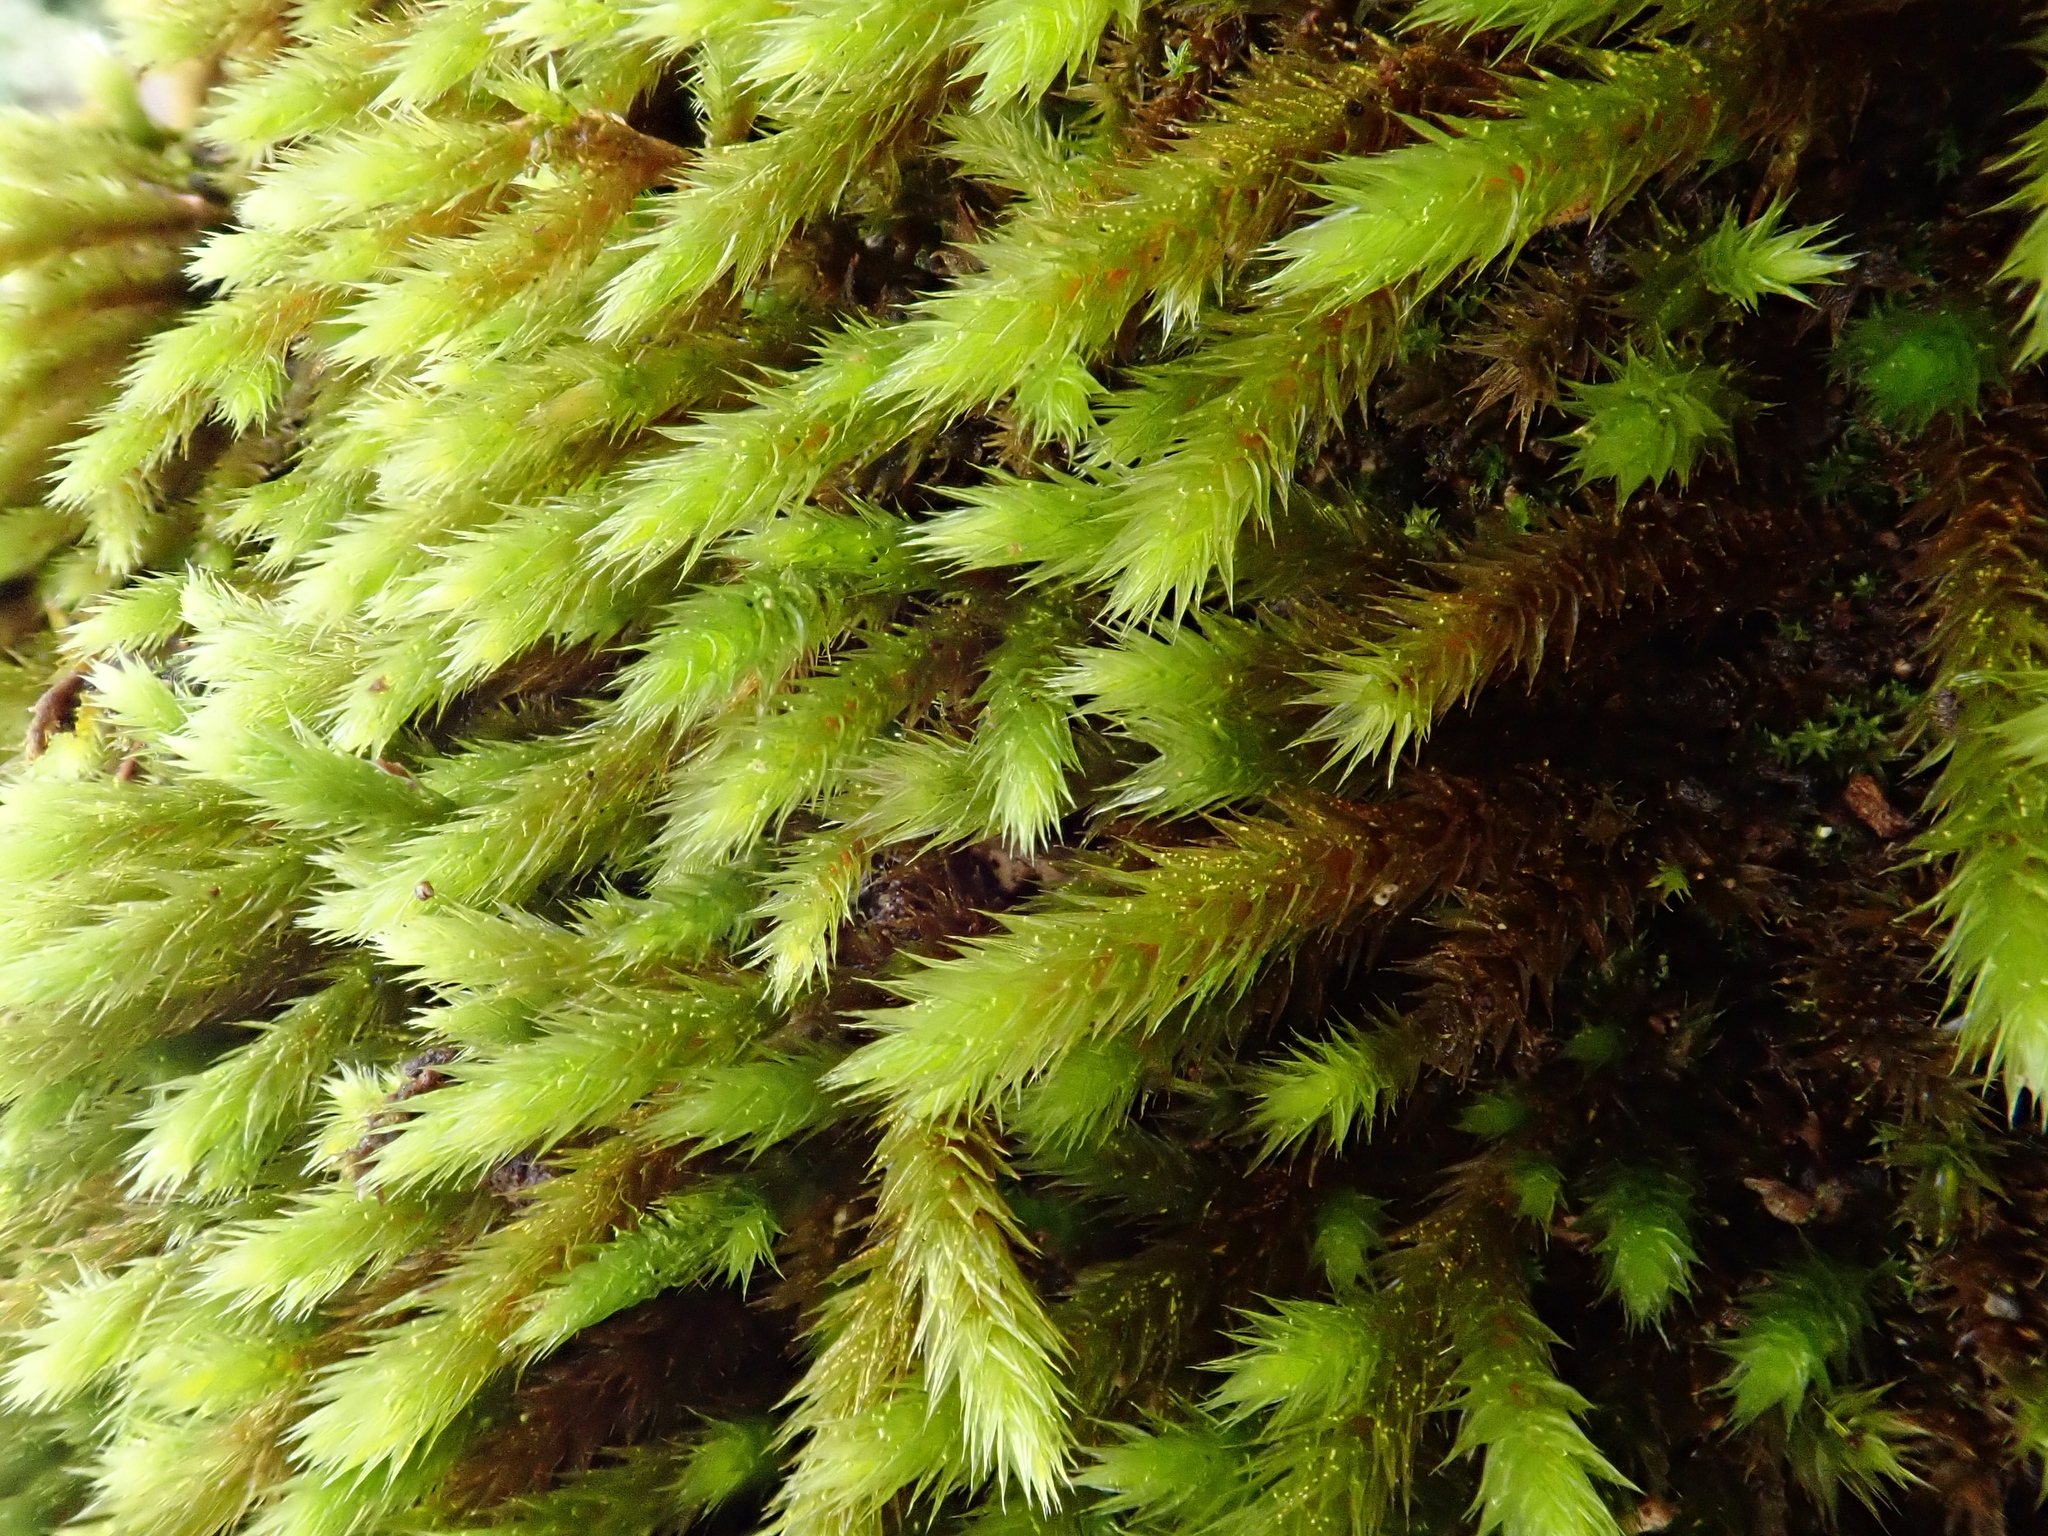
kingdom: Plantae
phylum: Bryophyta
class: Bryopsida
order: Hypnales
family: Leucodontaceae
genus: Leucodon
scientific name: Leucodon sciuroides
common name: Squirrel-tail moss
